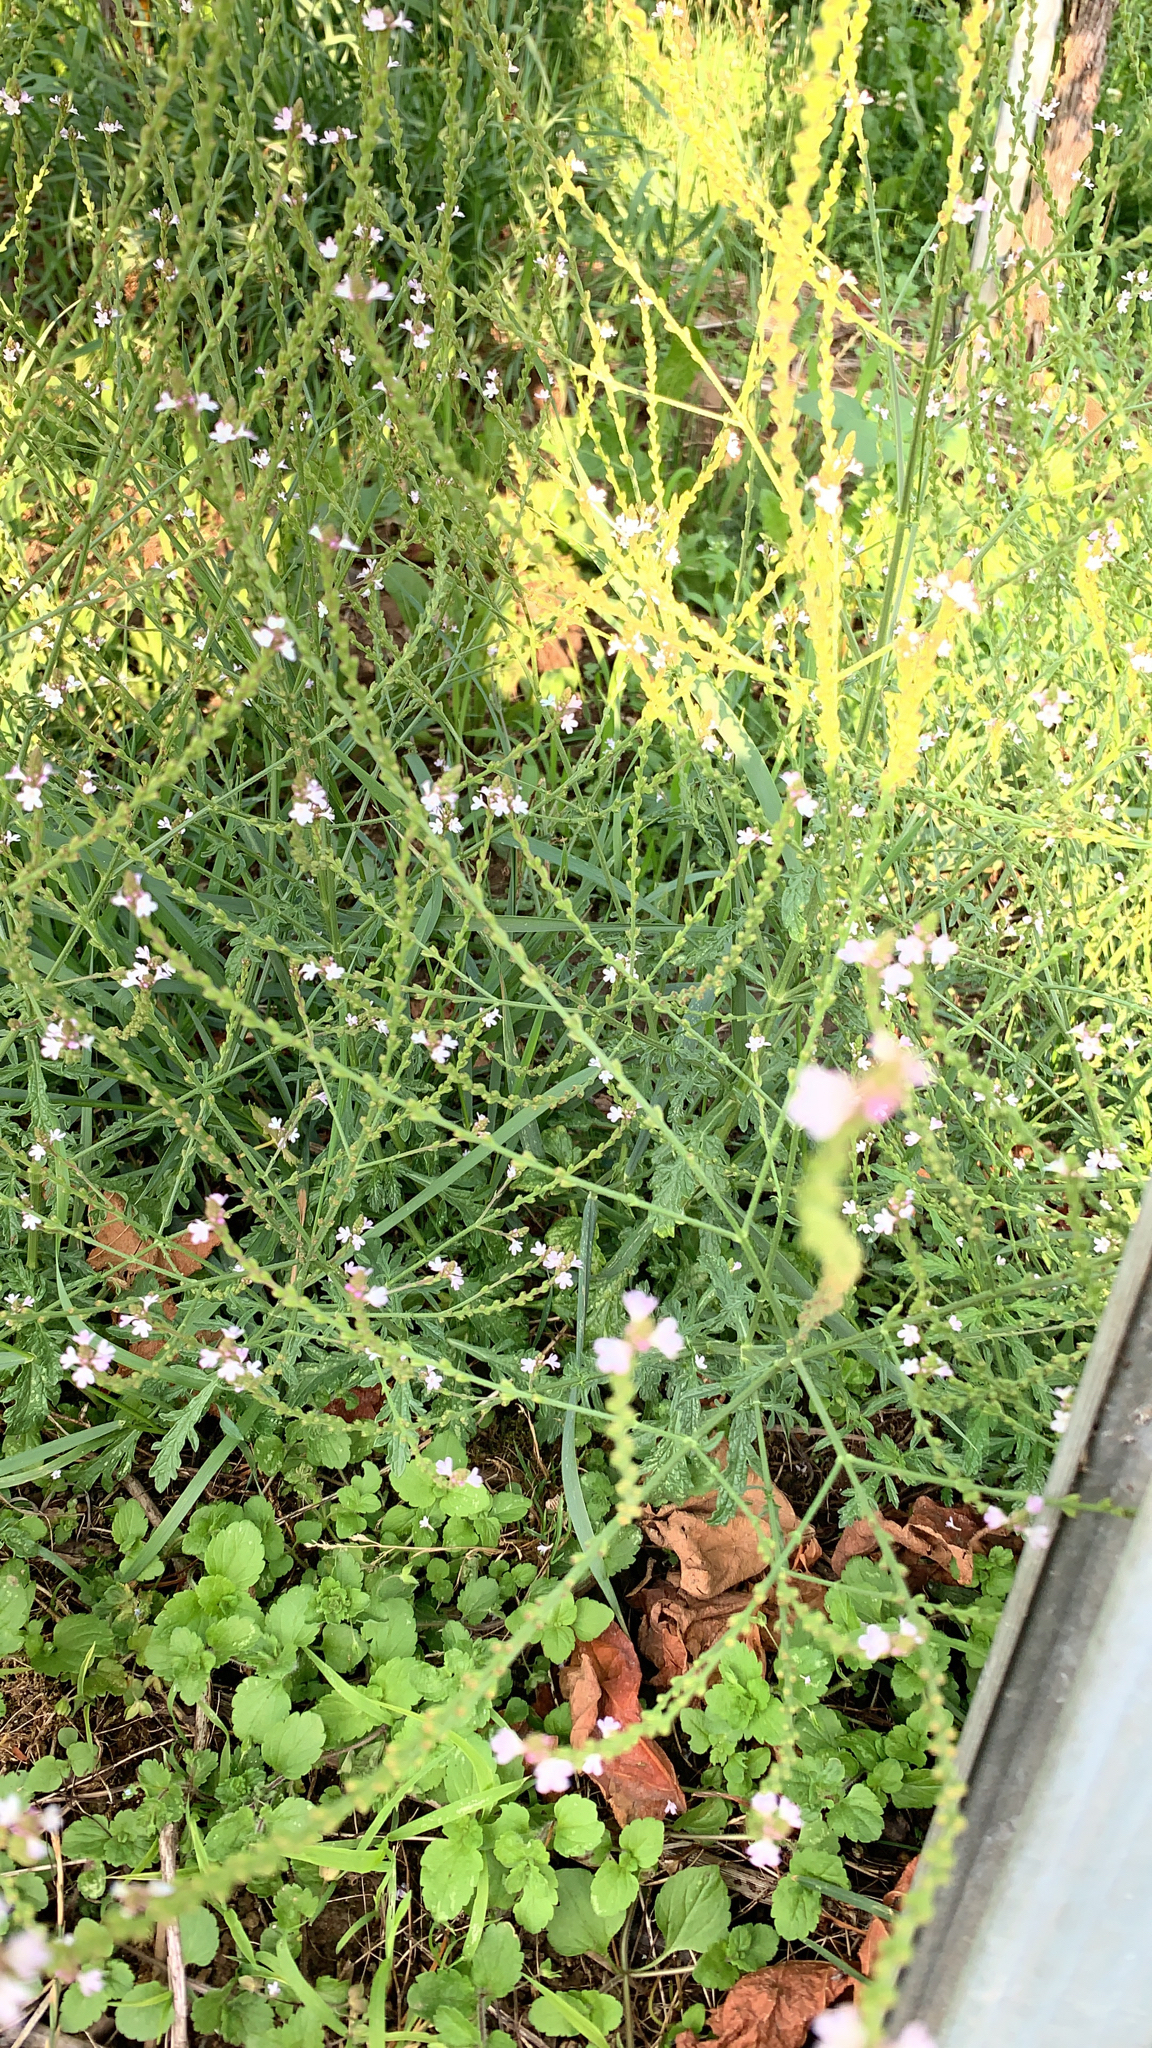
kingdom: Plantae
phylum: Tracheophyta
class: Magnoliopsida
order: Lamiales
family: Verbenaceae
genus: Verbena
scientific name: Verbena officinalis
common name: Vervain
